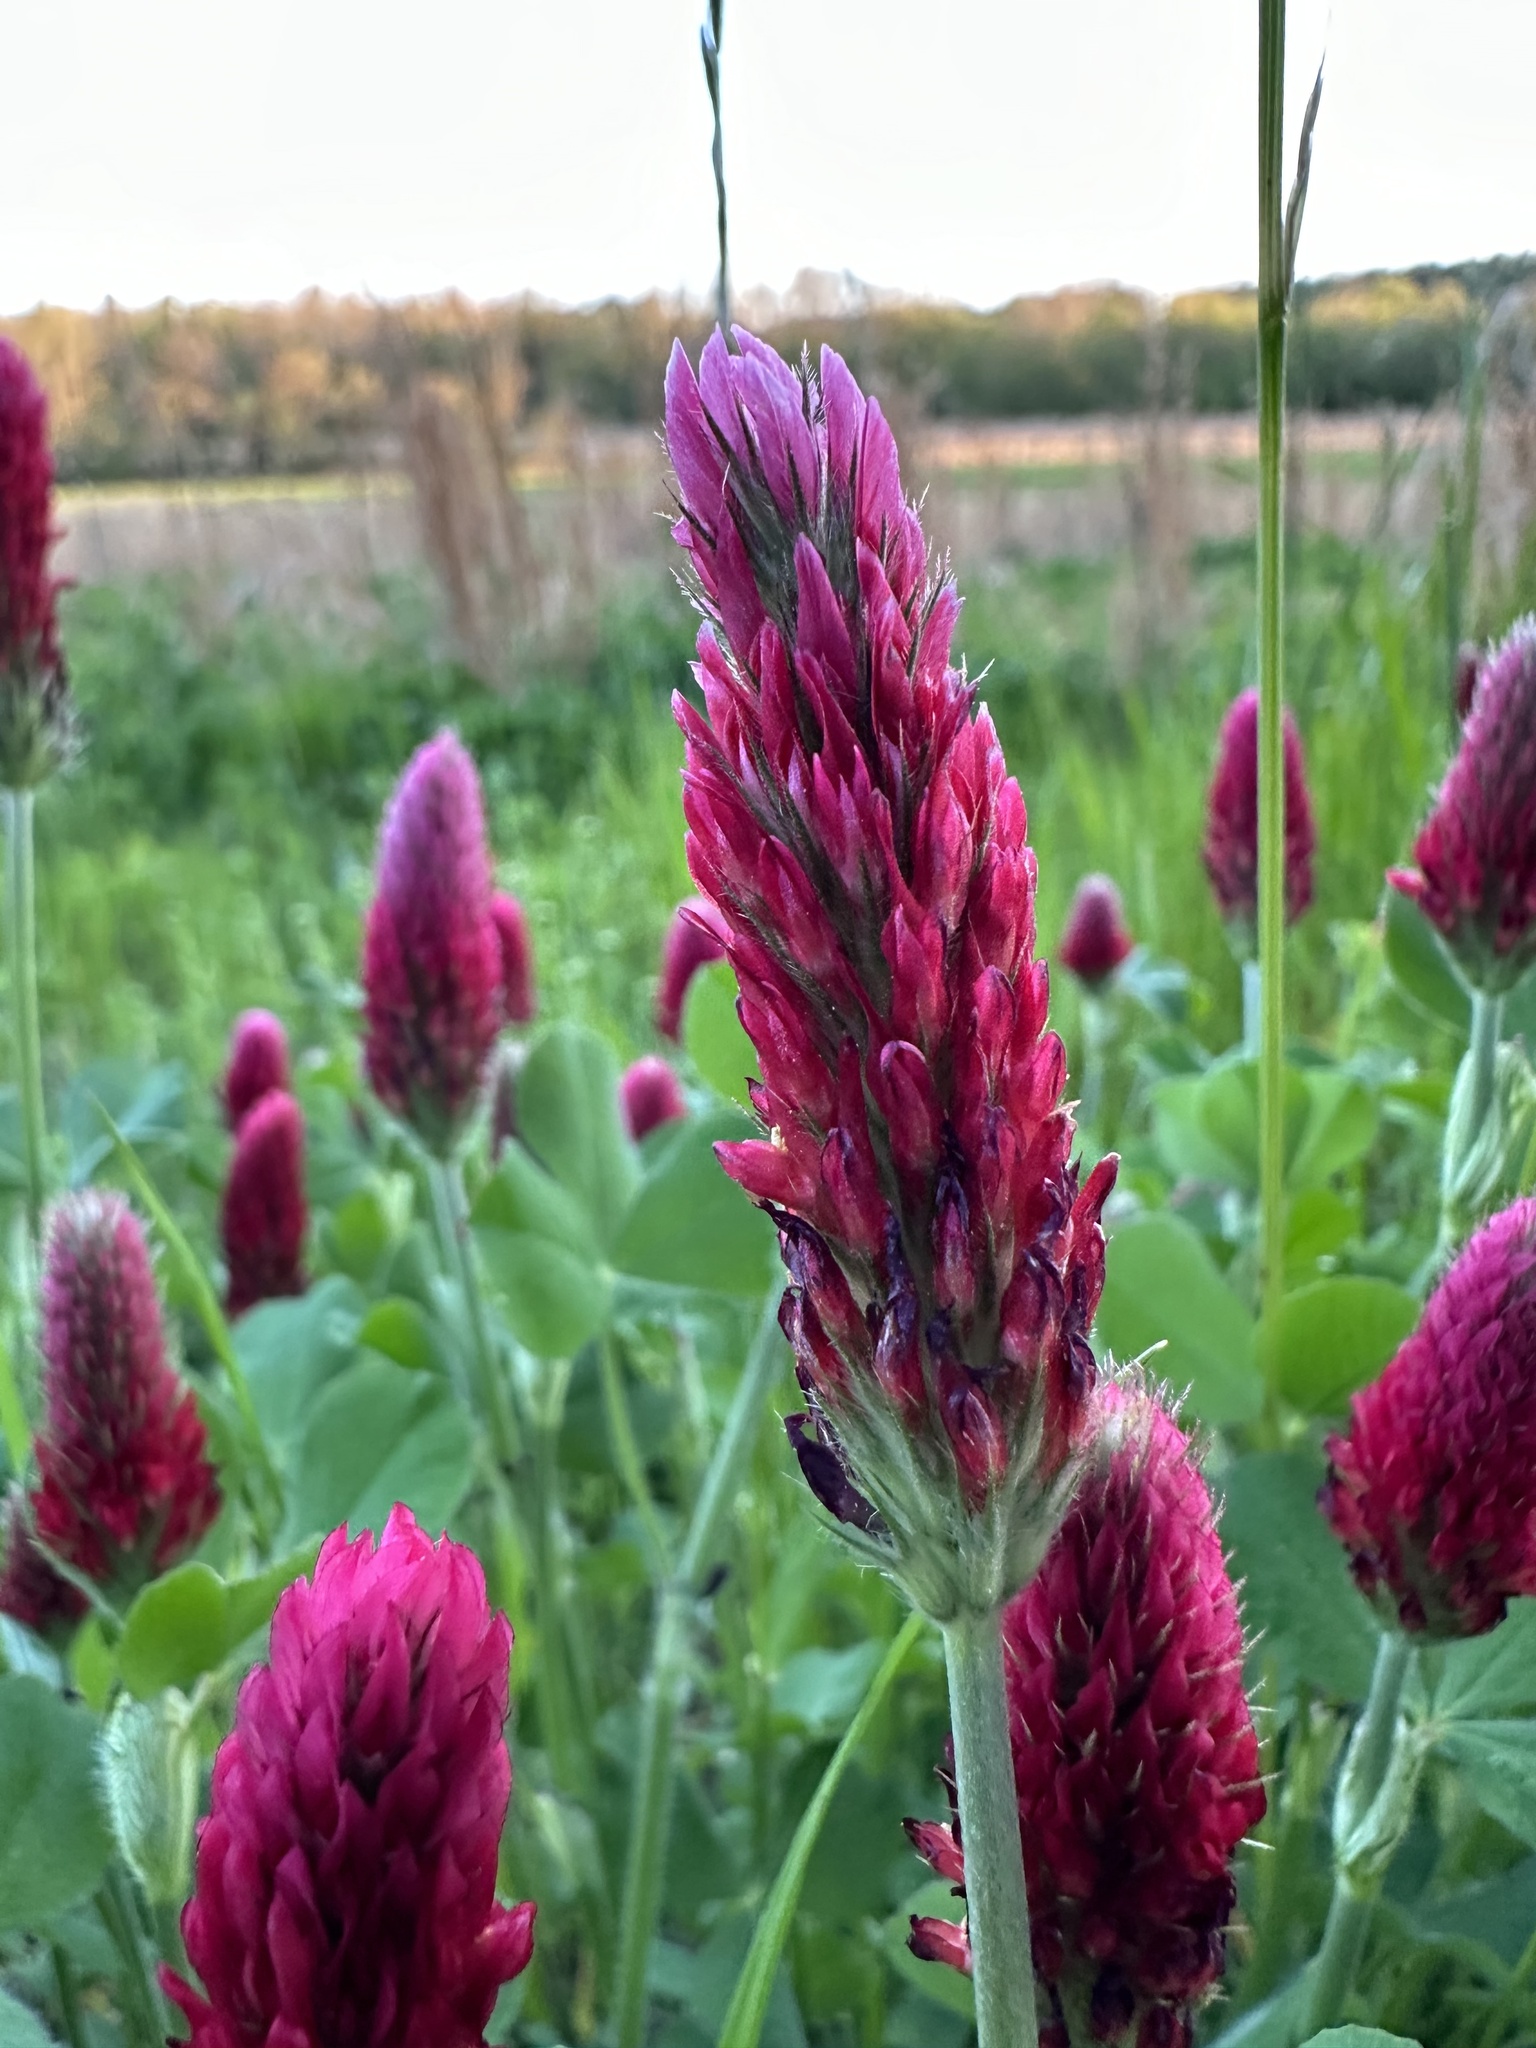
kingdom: Plantae
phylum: Tracheophyta
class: Magnoliopsida
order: Fabales
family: Fabaceae
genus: Trifolium
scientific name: Trifolium incarnatum
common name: Crimson clover
